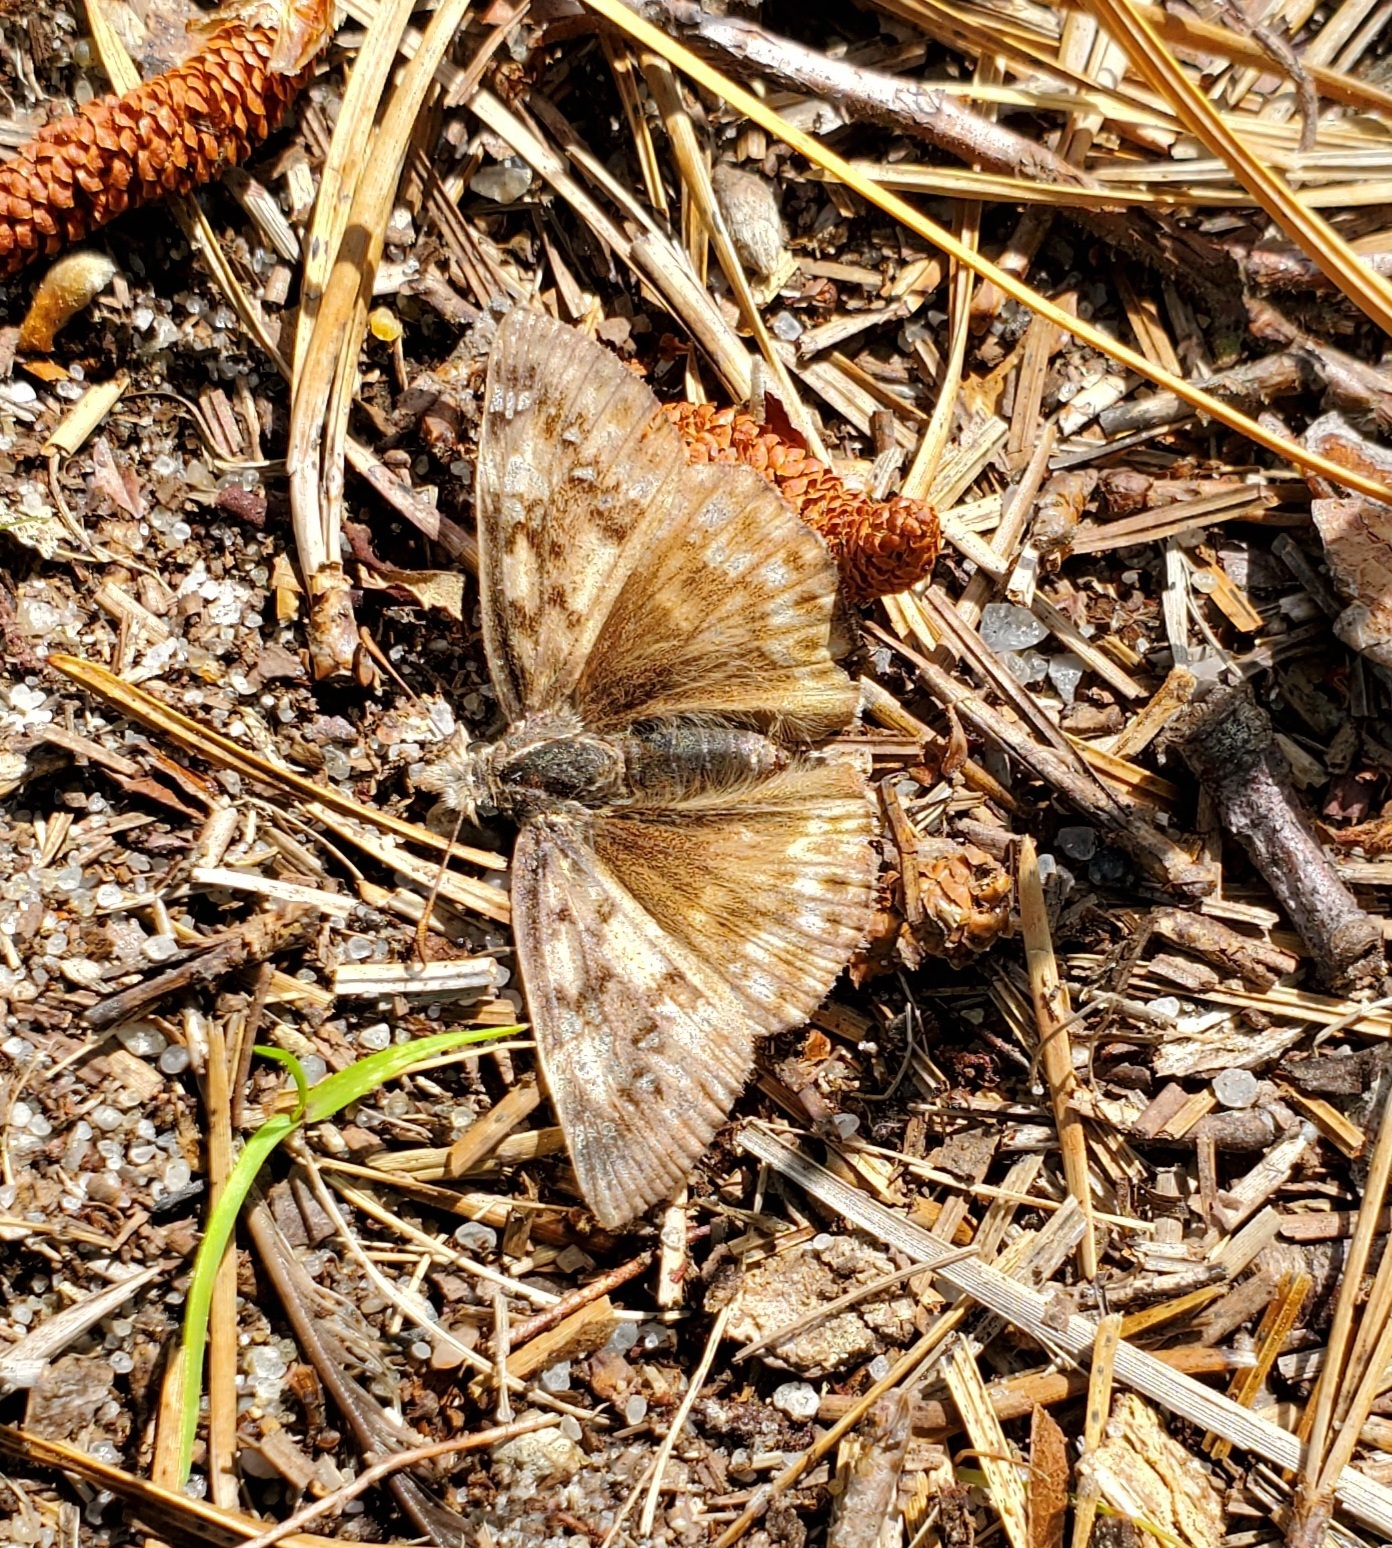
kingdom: Animalia
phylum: Arthropoda
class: Insecta
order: Lepidoptera
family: Hesperiidae
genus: Erynnis
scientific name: Erynnis juvenalis
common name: Juvenal's duskywing
